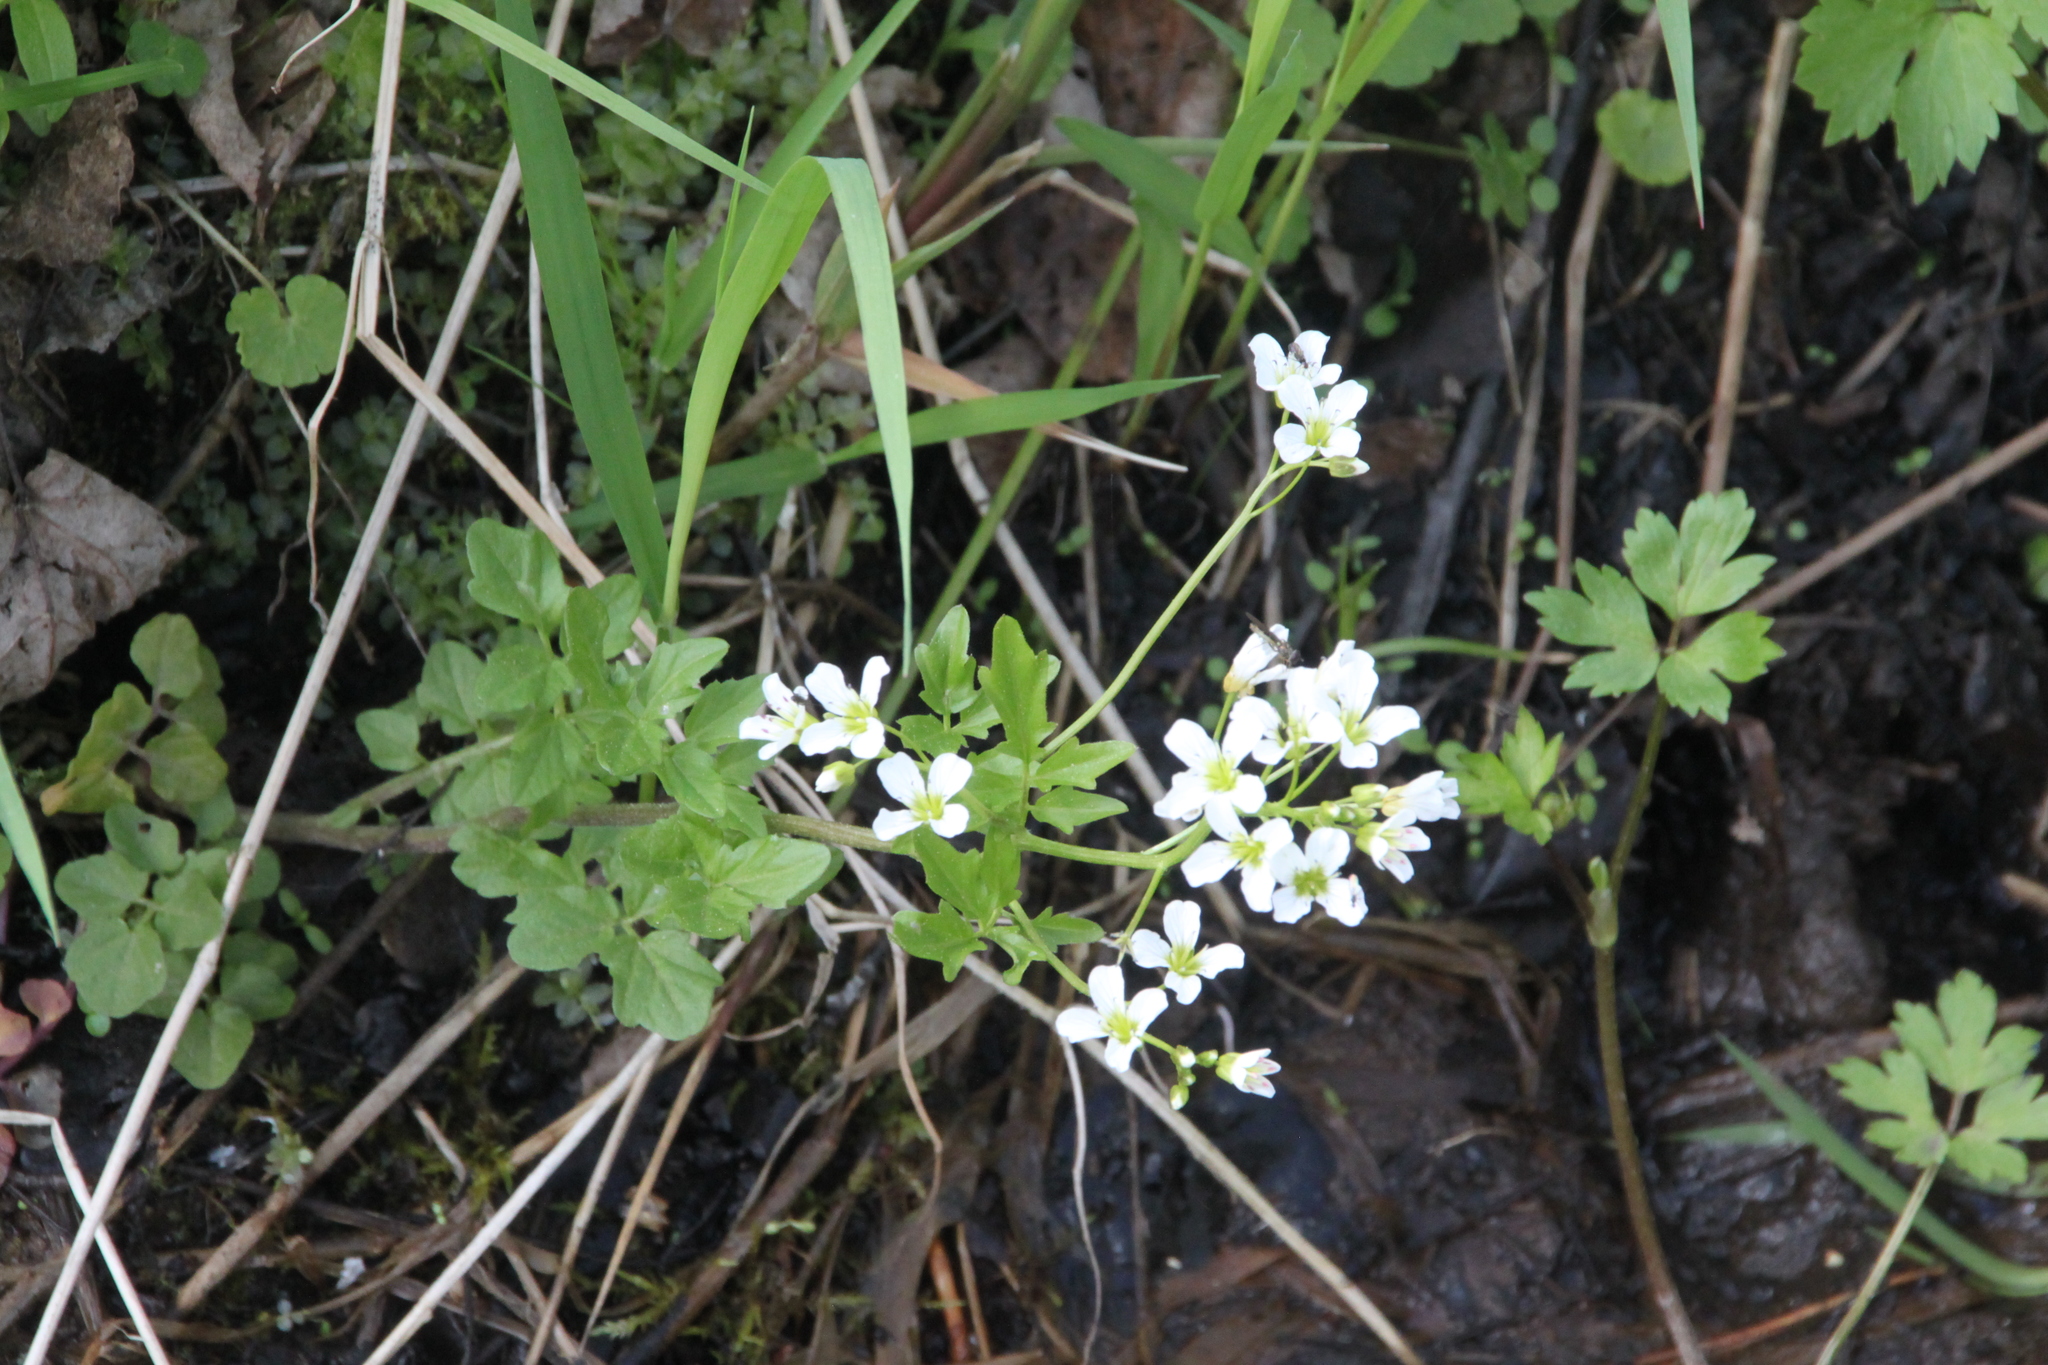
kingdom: Plantae
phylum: Tracheophyta
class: Magnoliopsida
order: Brassicales
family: Brassicaceae
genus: Cardamine
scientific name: Cardamine amara
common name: Large bitter-cress
